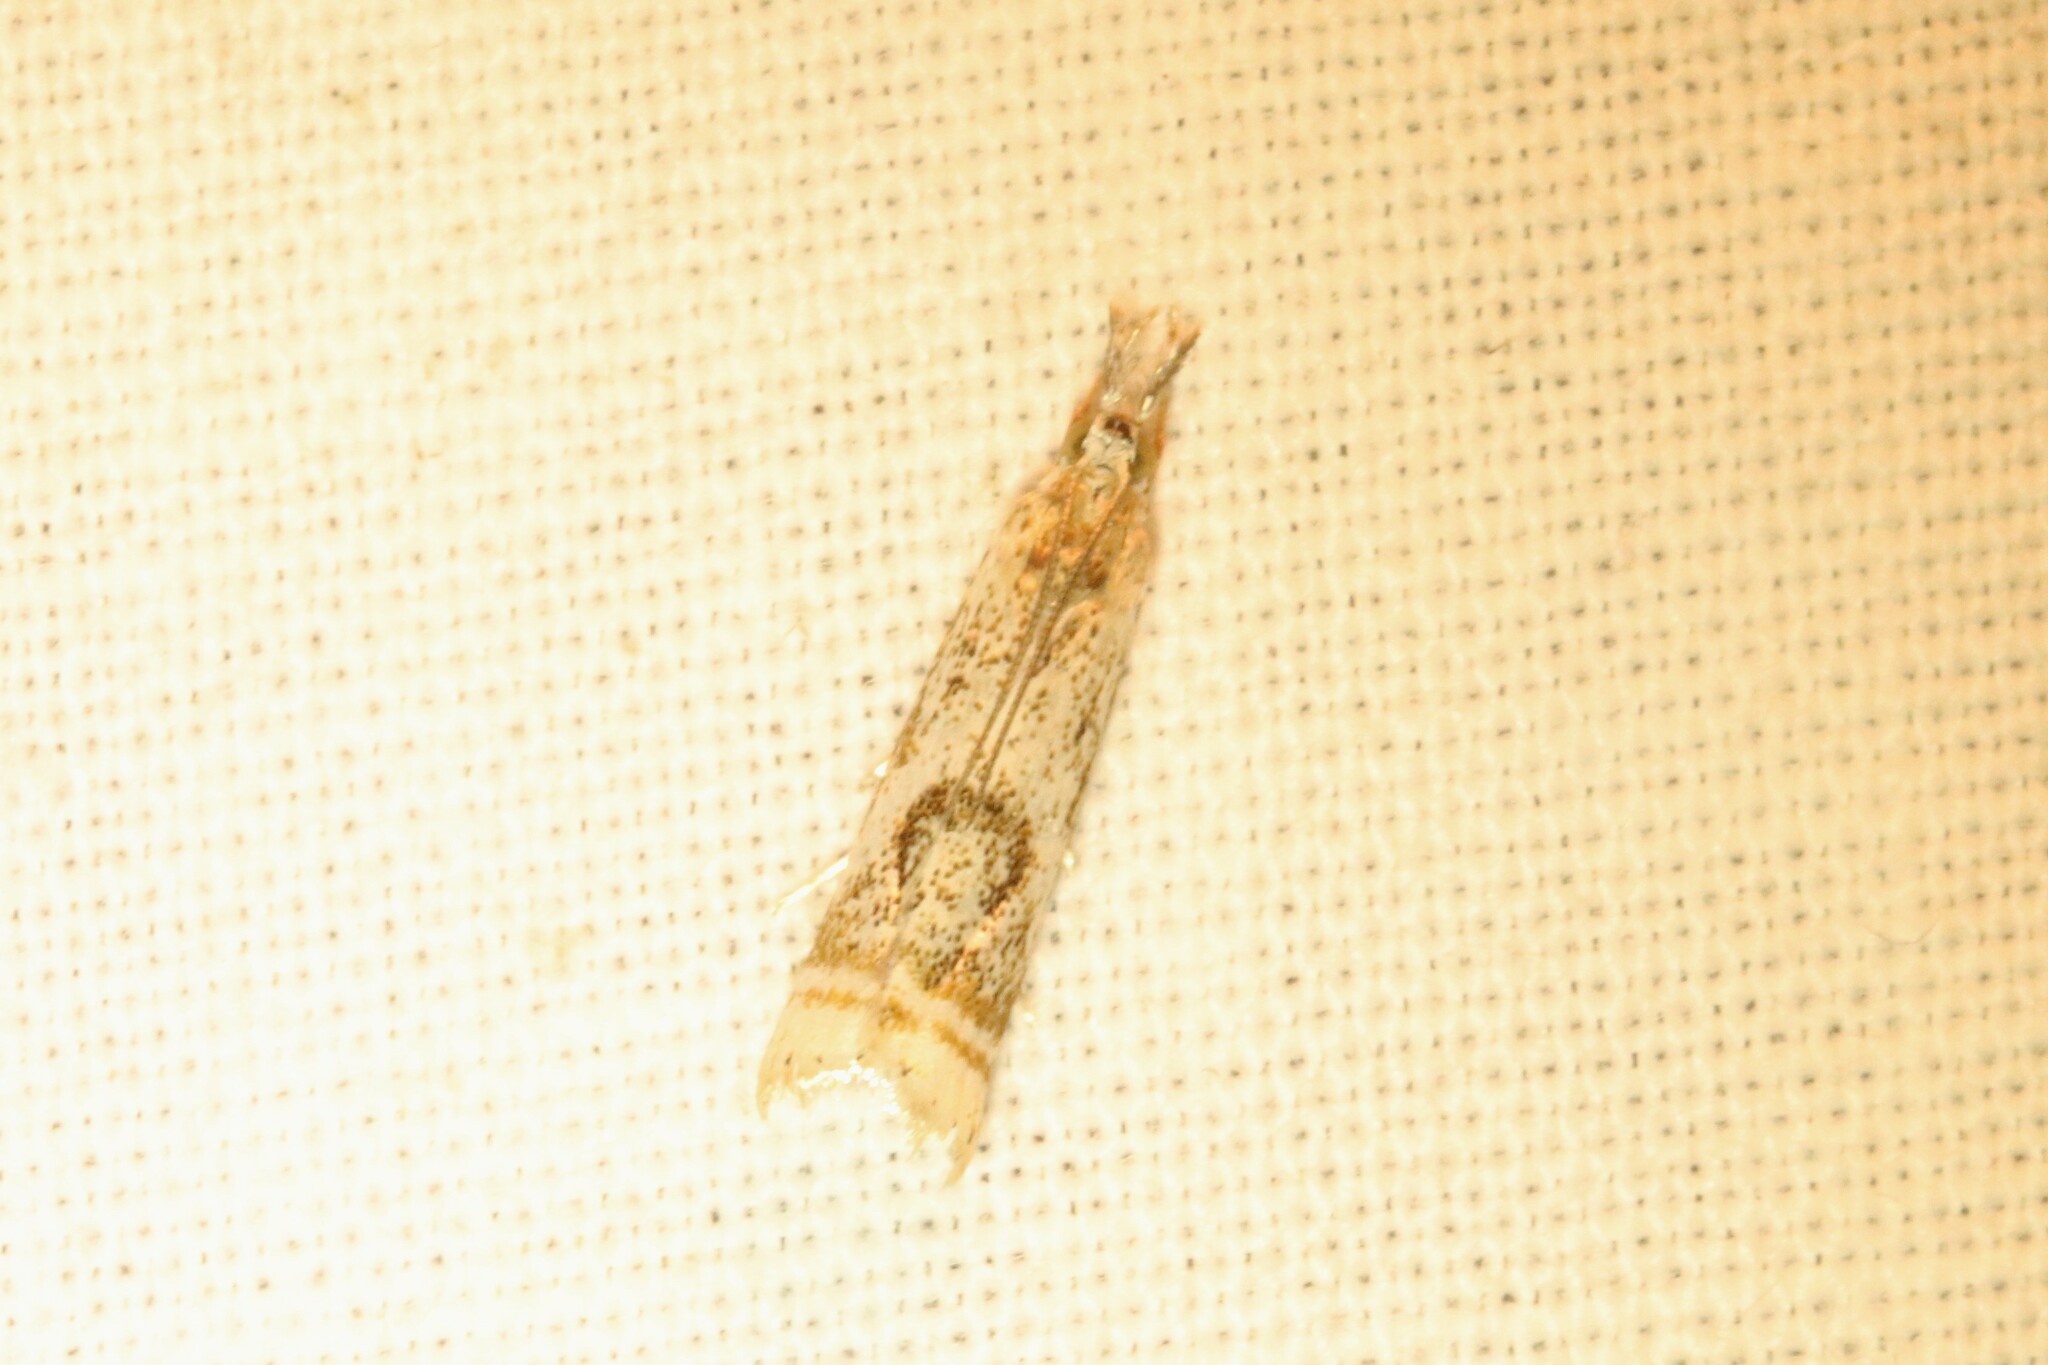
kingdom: Animalia
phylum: Arthropoda
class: Insecta
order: Lepidoptera
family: Crambidae
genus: Microcrambus
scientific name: Microcrambus elegans
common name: Elegant grass-veneer
